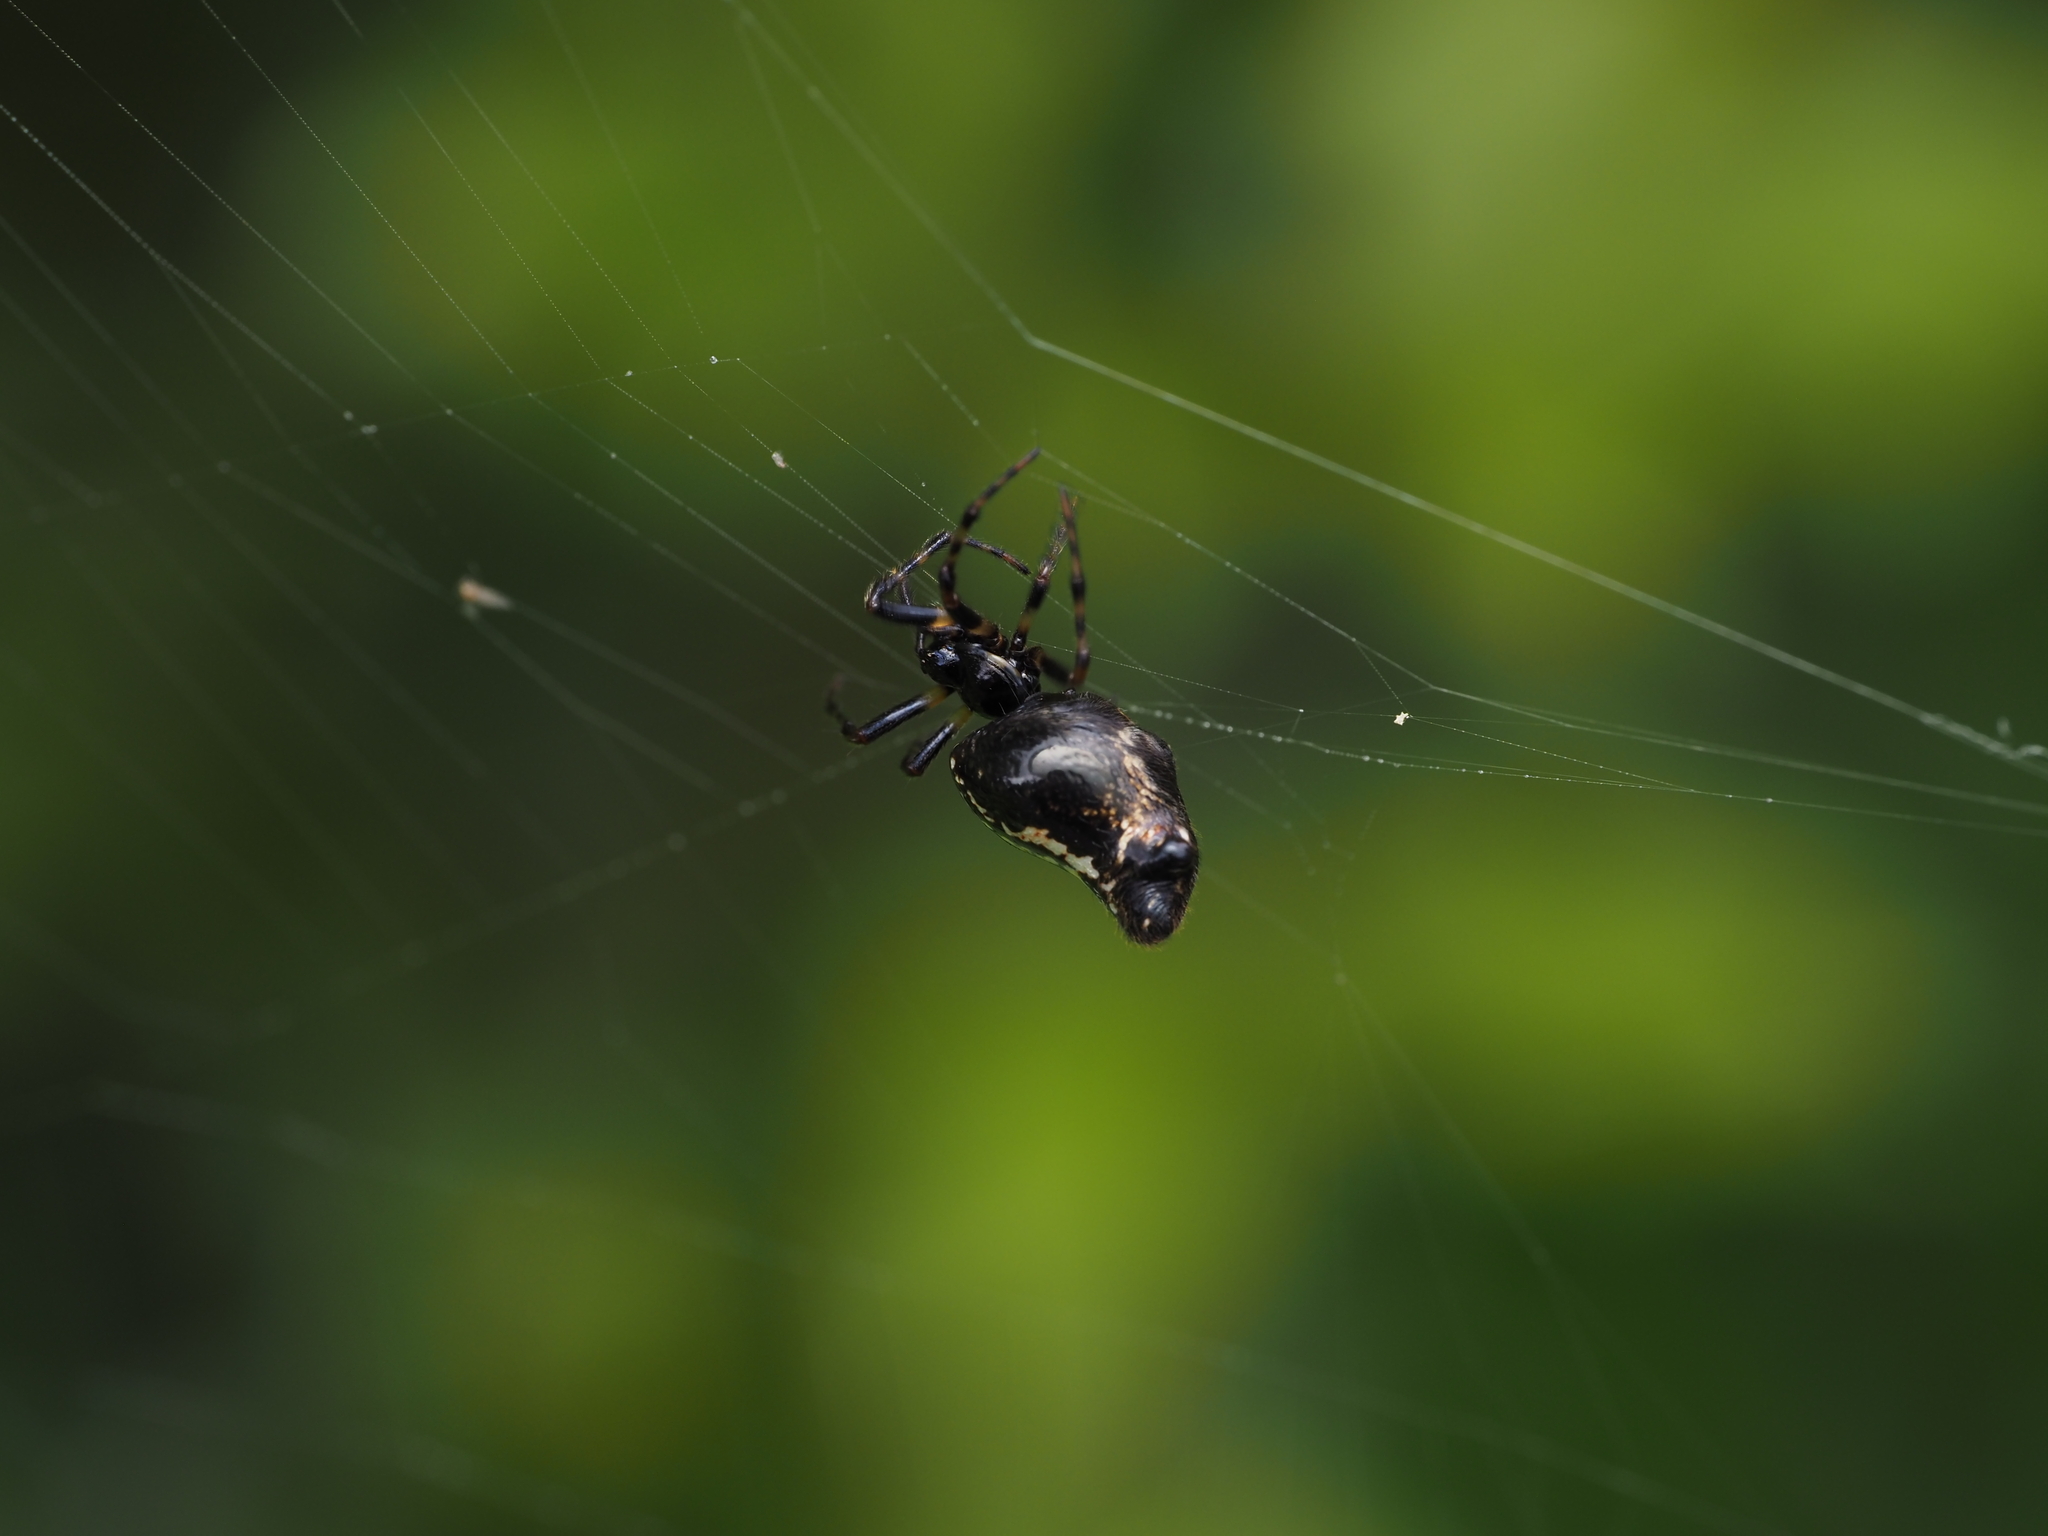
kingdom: Animalia
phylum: Arthropoda
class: Arachnida
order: Araneae
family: Araneidae
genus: Cyclosa
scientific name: Cyclosa trilobata
